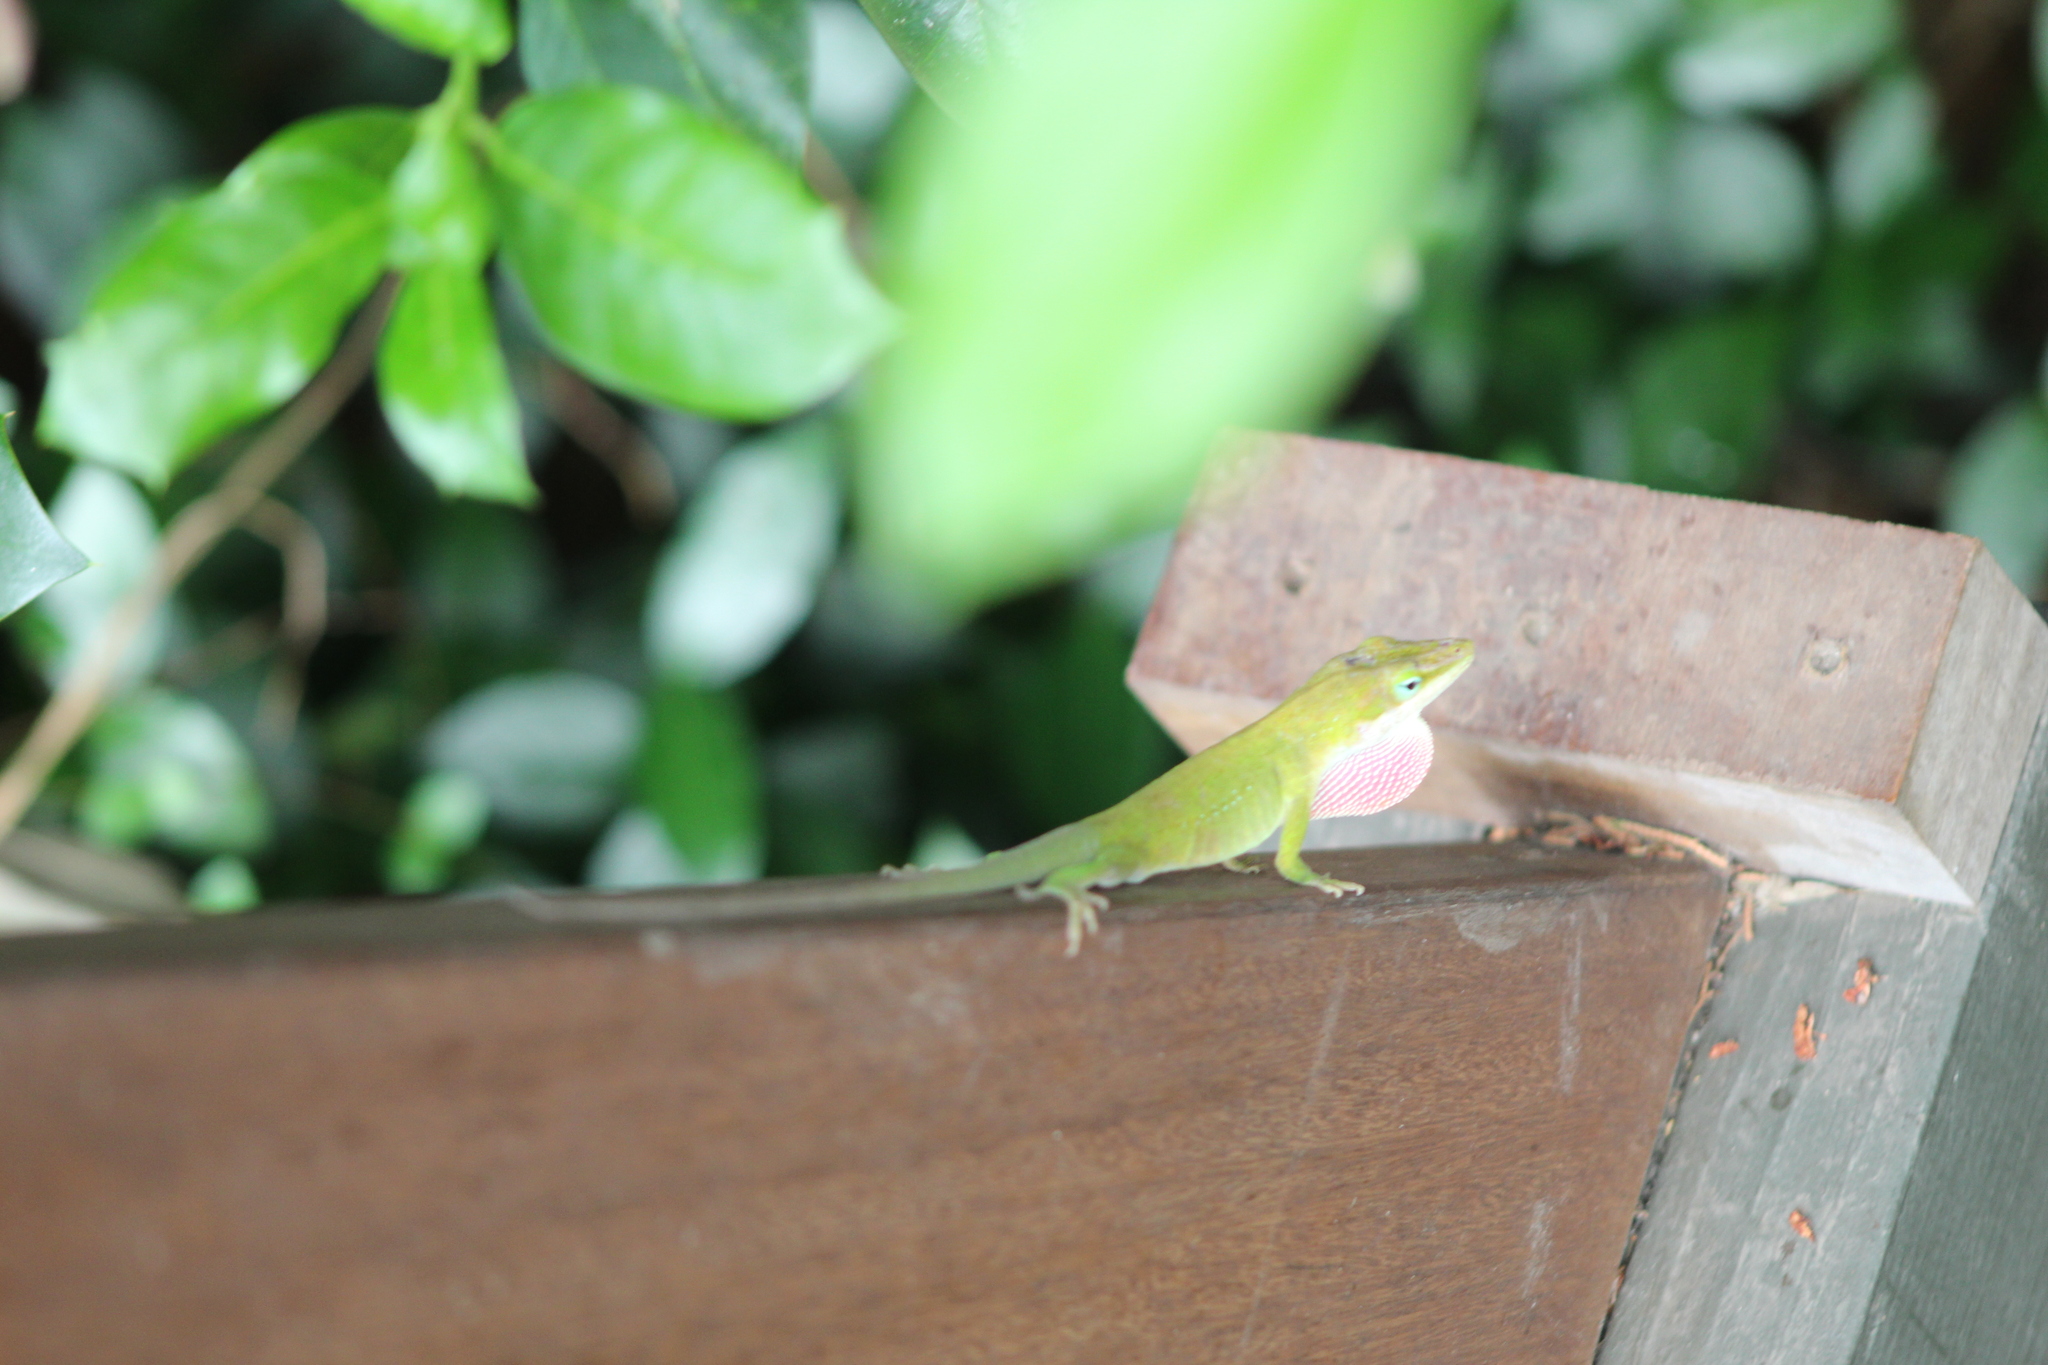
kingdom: Animalia
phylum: Chordata
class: Squamata
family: Dactyloidae
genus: Anolis
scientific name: Anolis carolinensis
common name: Green anole
